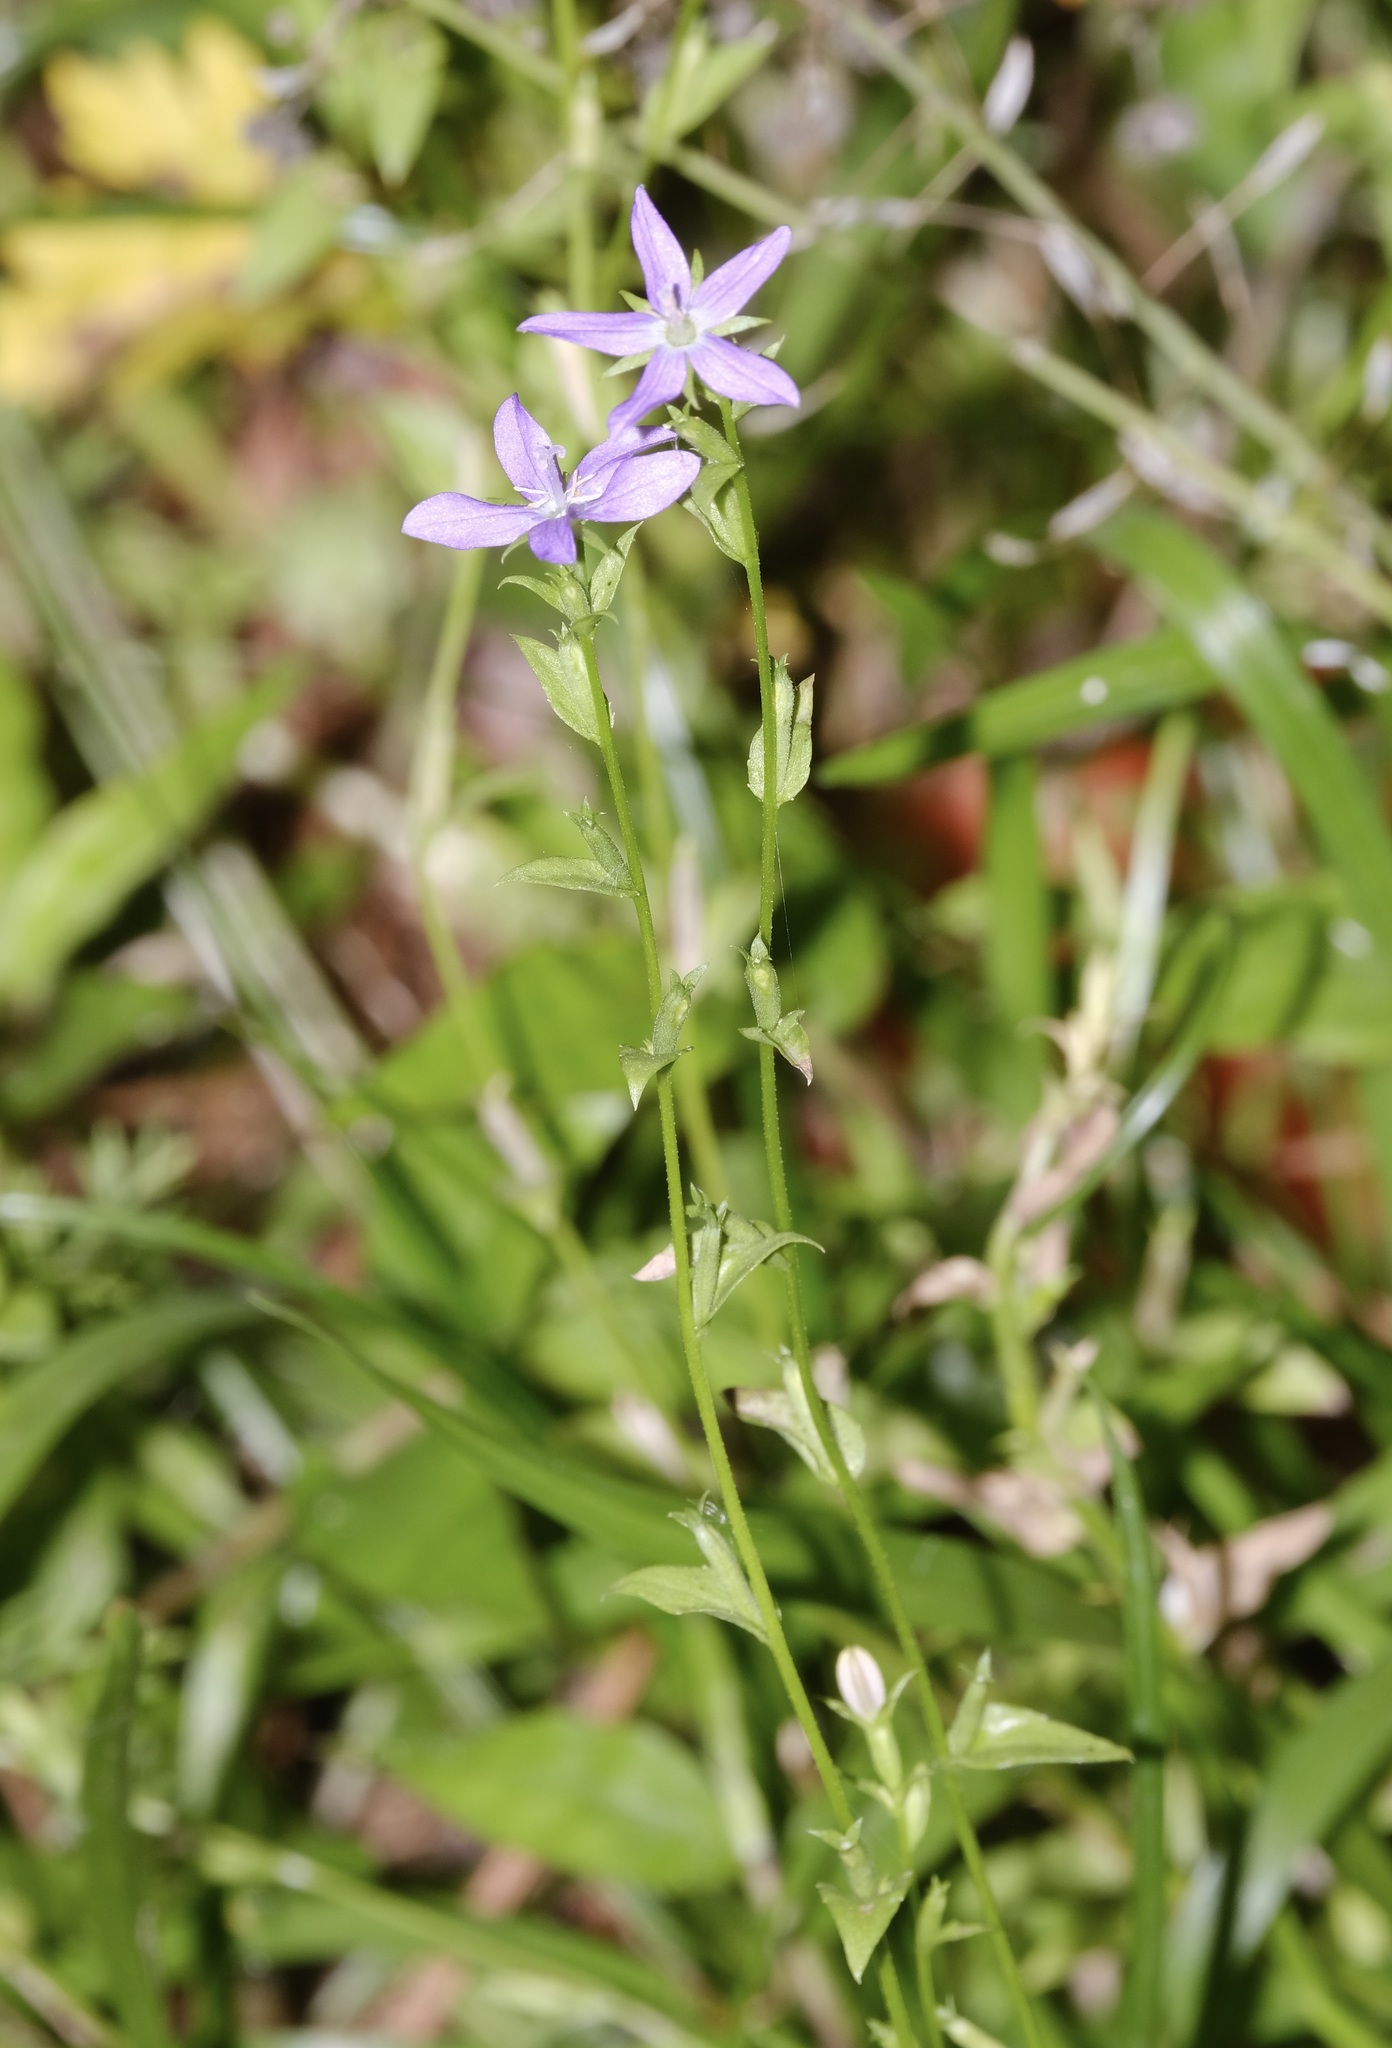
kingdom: Plantae
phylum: Tracheophyta
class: Magnoliopsida
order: Asterales
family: Campanulaceae
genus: Triodanis
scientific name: Triodanis biflora
